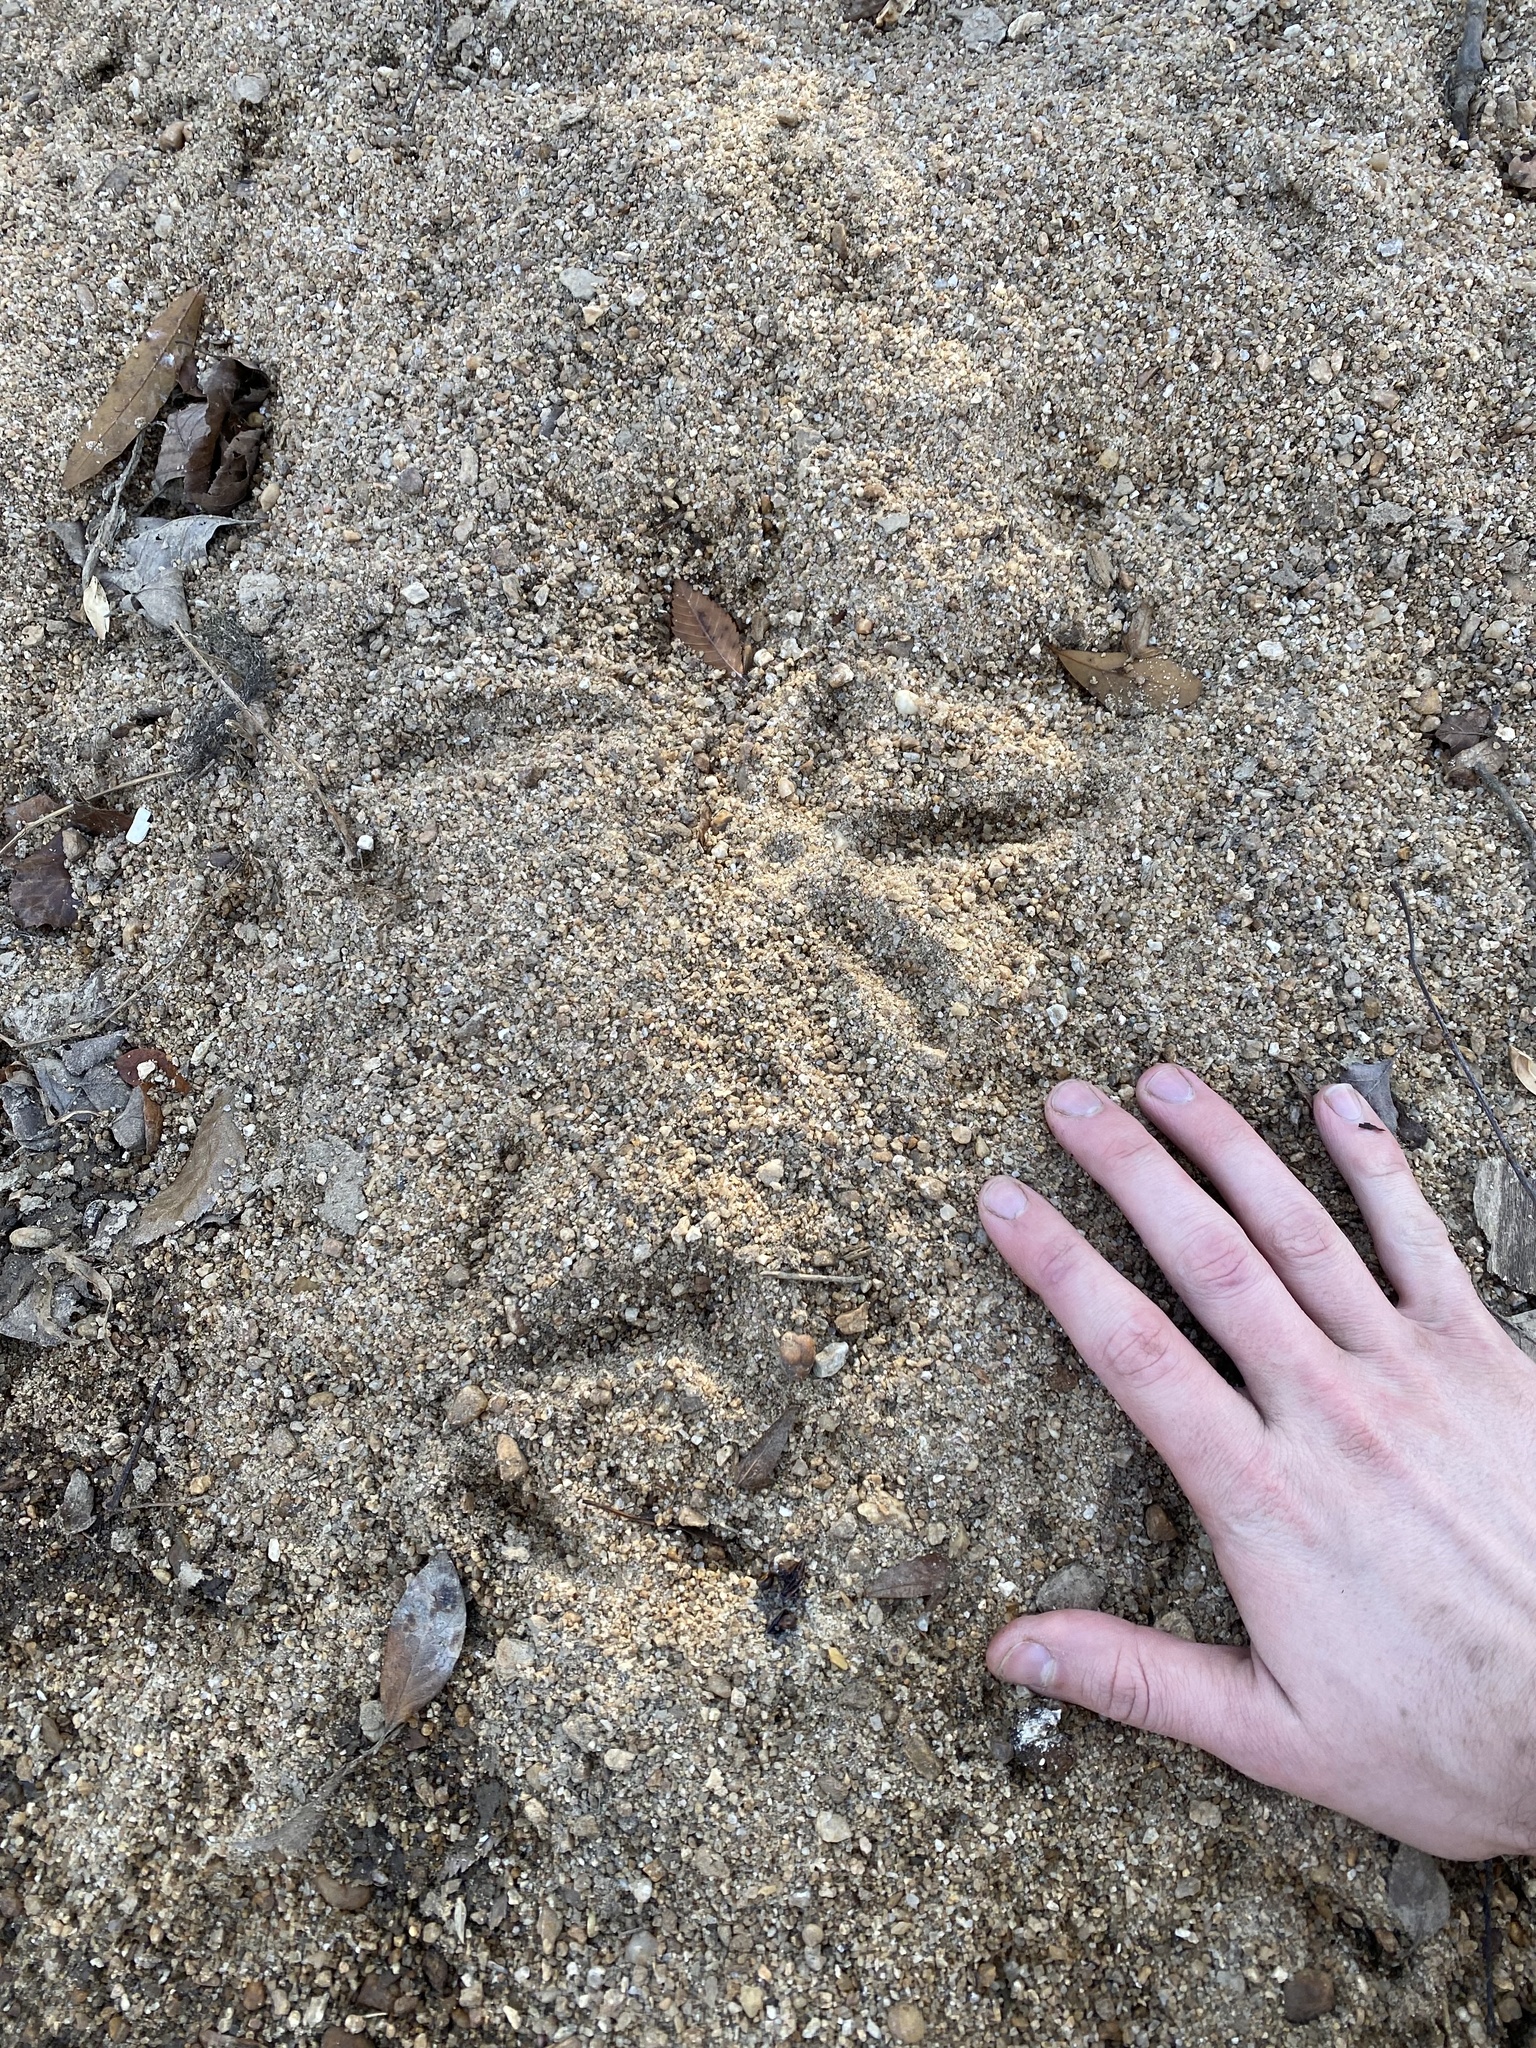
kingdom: Animalia
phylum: Chordata
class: Aves
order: Pelecaniformes
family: Ardeidae
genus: Ardea
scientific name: Ardea herodias
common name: Great blue heron
